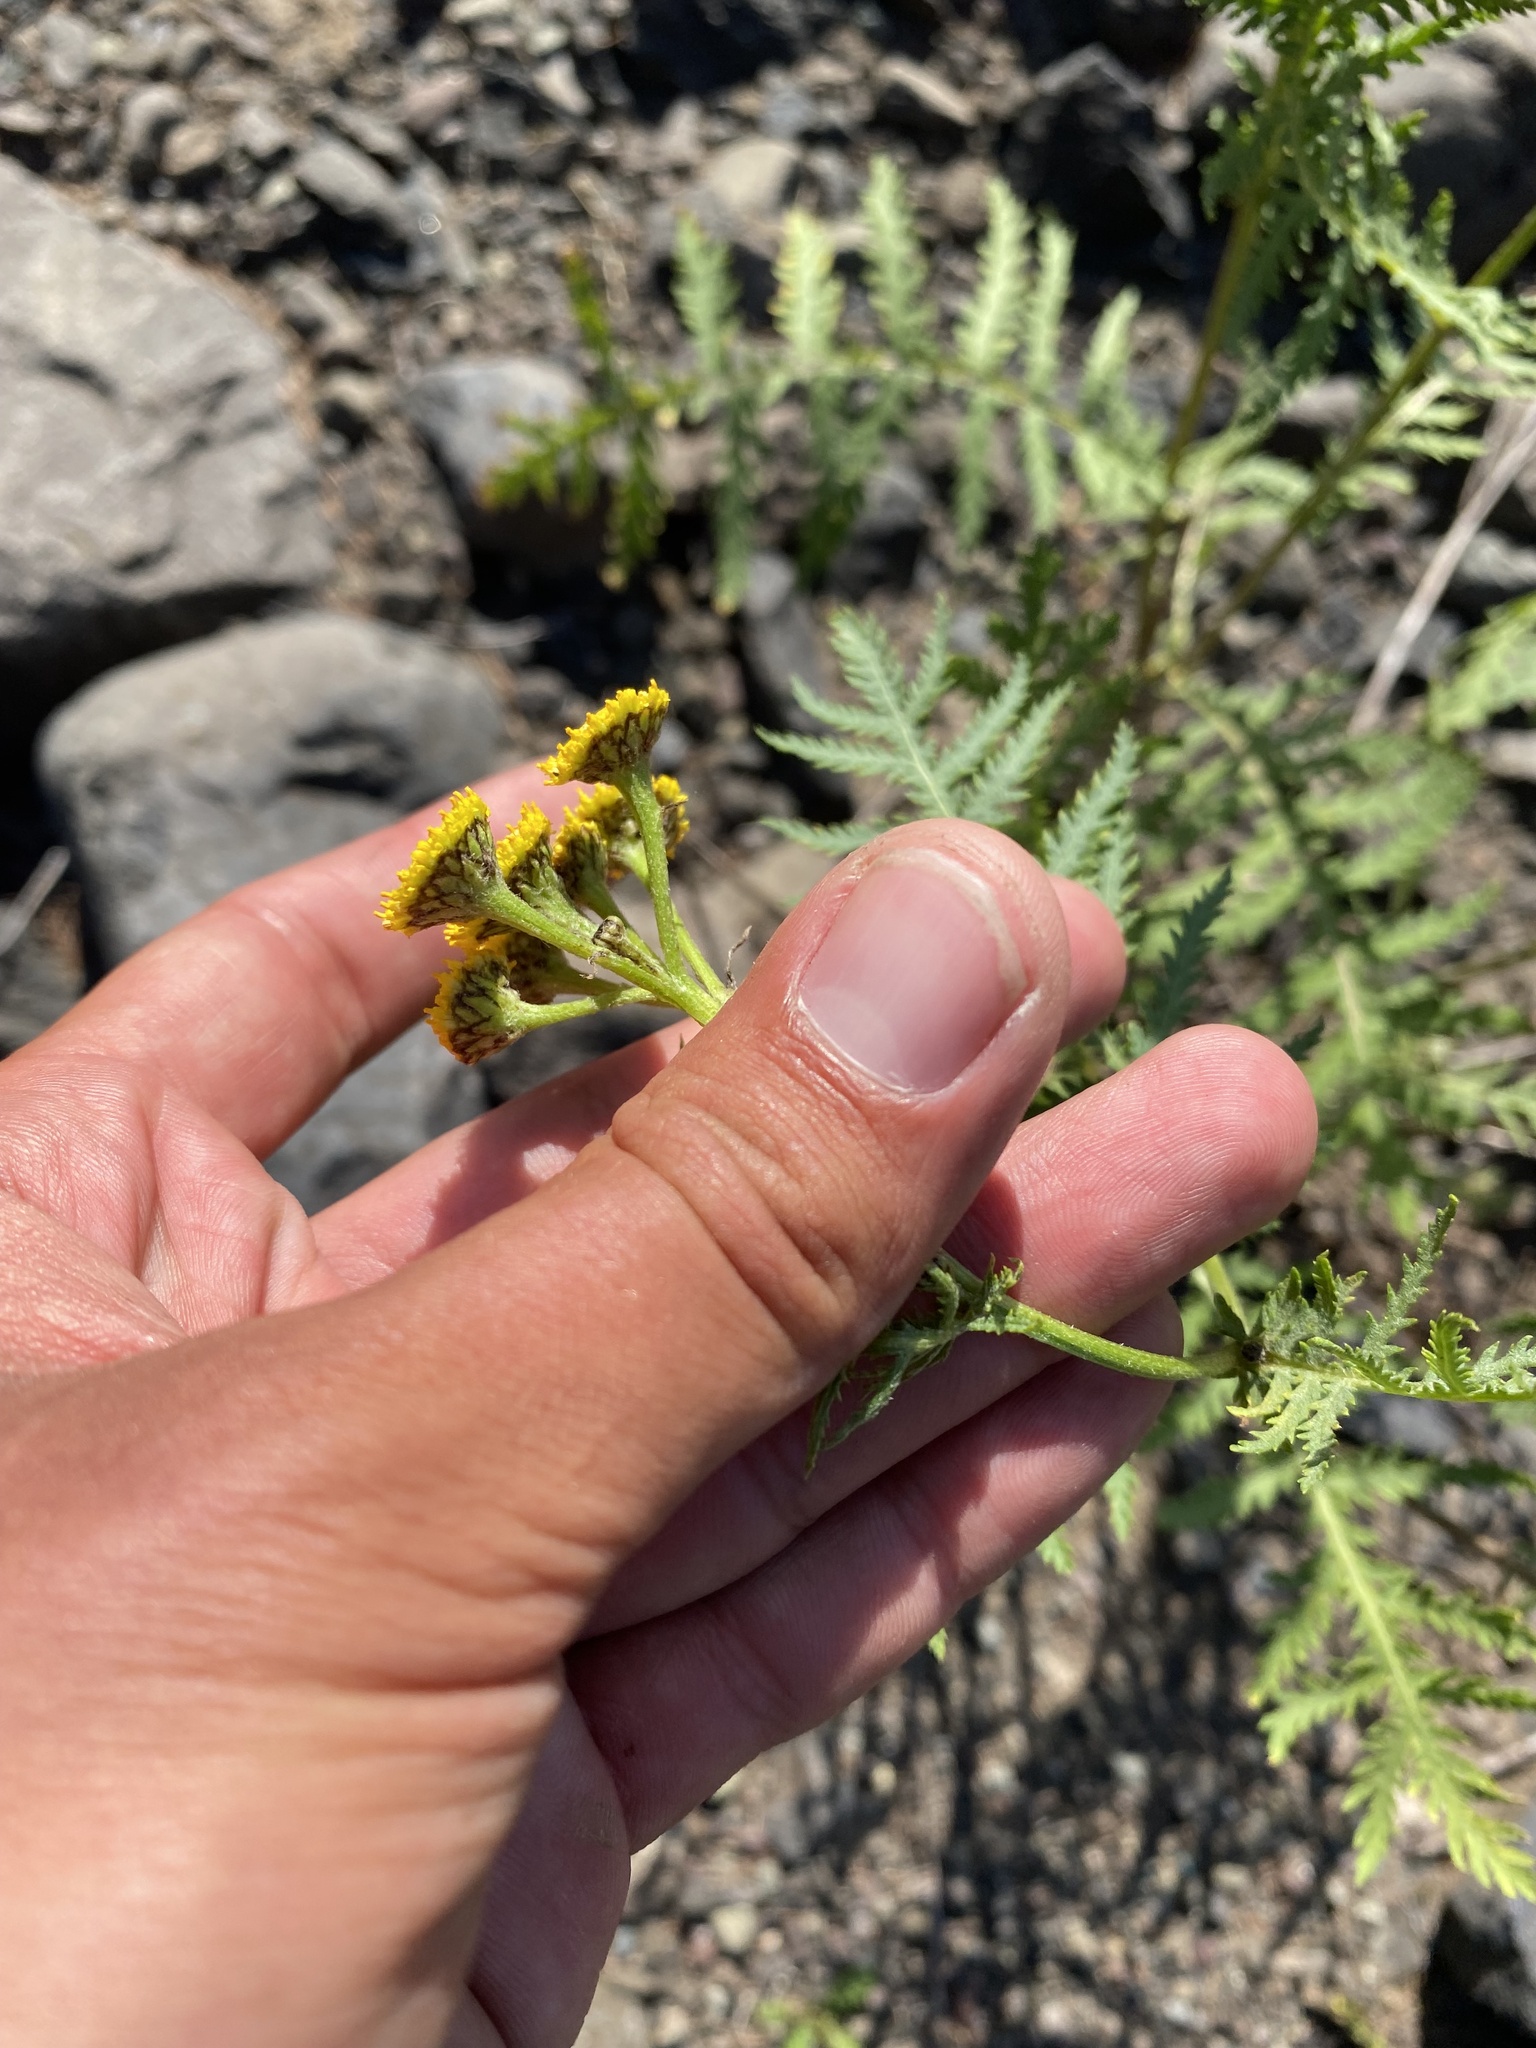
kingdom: Plantae
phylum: Tracheophyta
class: Magnoliopsida
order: Asterales
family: Asteraceae
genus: Tanacetum
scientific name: Tanacetum vulgare
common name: Common tansy
